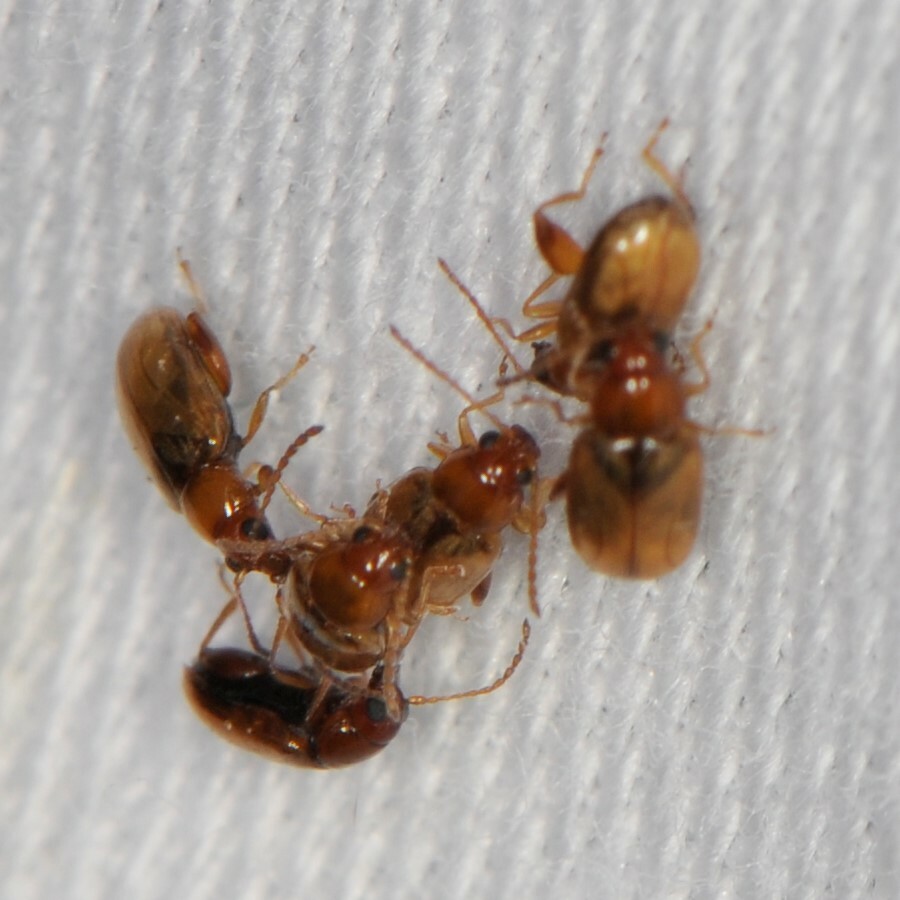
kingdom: Animalia
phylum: Arthropoda
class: Insecta
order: Coleoptera
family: Chrysomelidae
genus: Glyptina
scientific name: Glyptina
